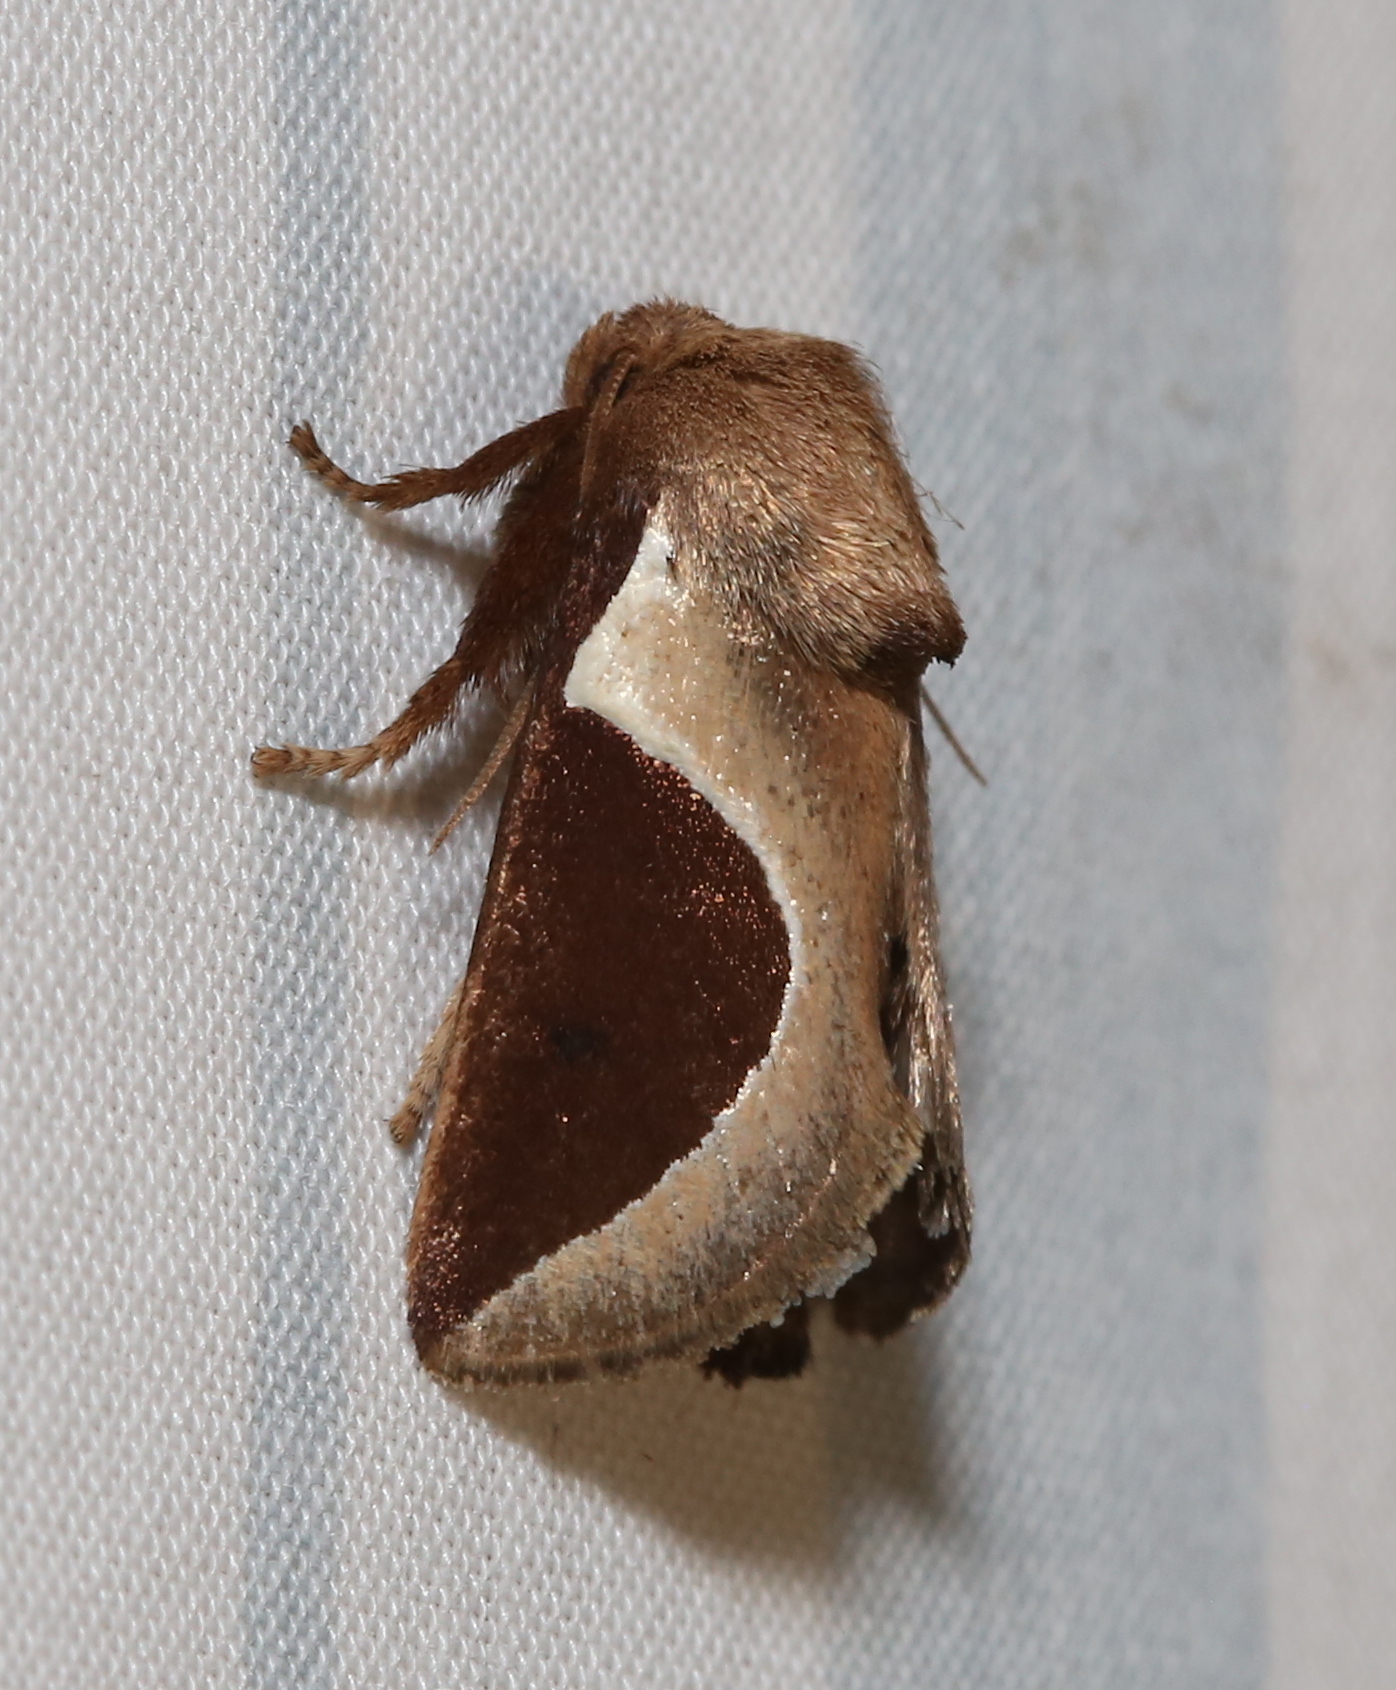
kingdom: Animalia
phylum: Arthropoda
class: Insecta
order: Lepidoptera
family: Limacodidae
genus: Prolimacodes
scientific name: Prolimacodes badia
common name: Skiff moth
